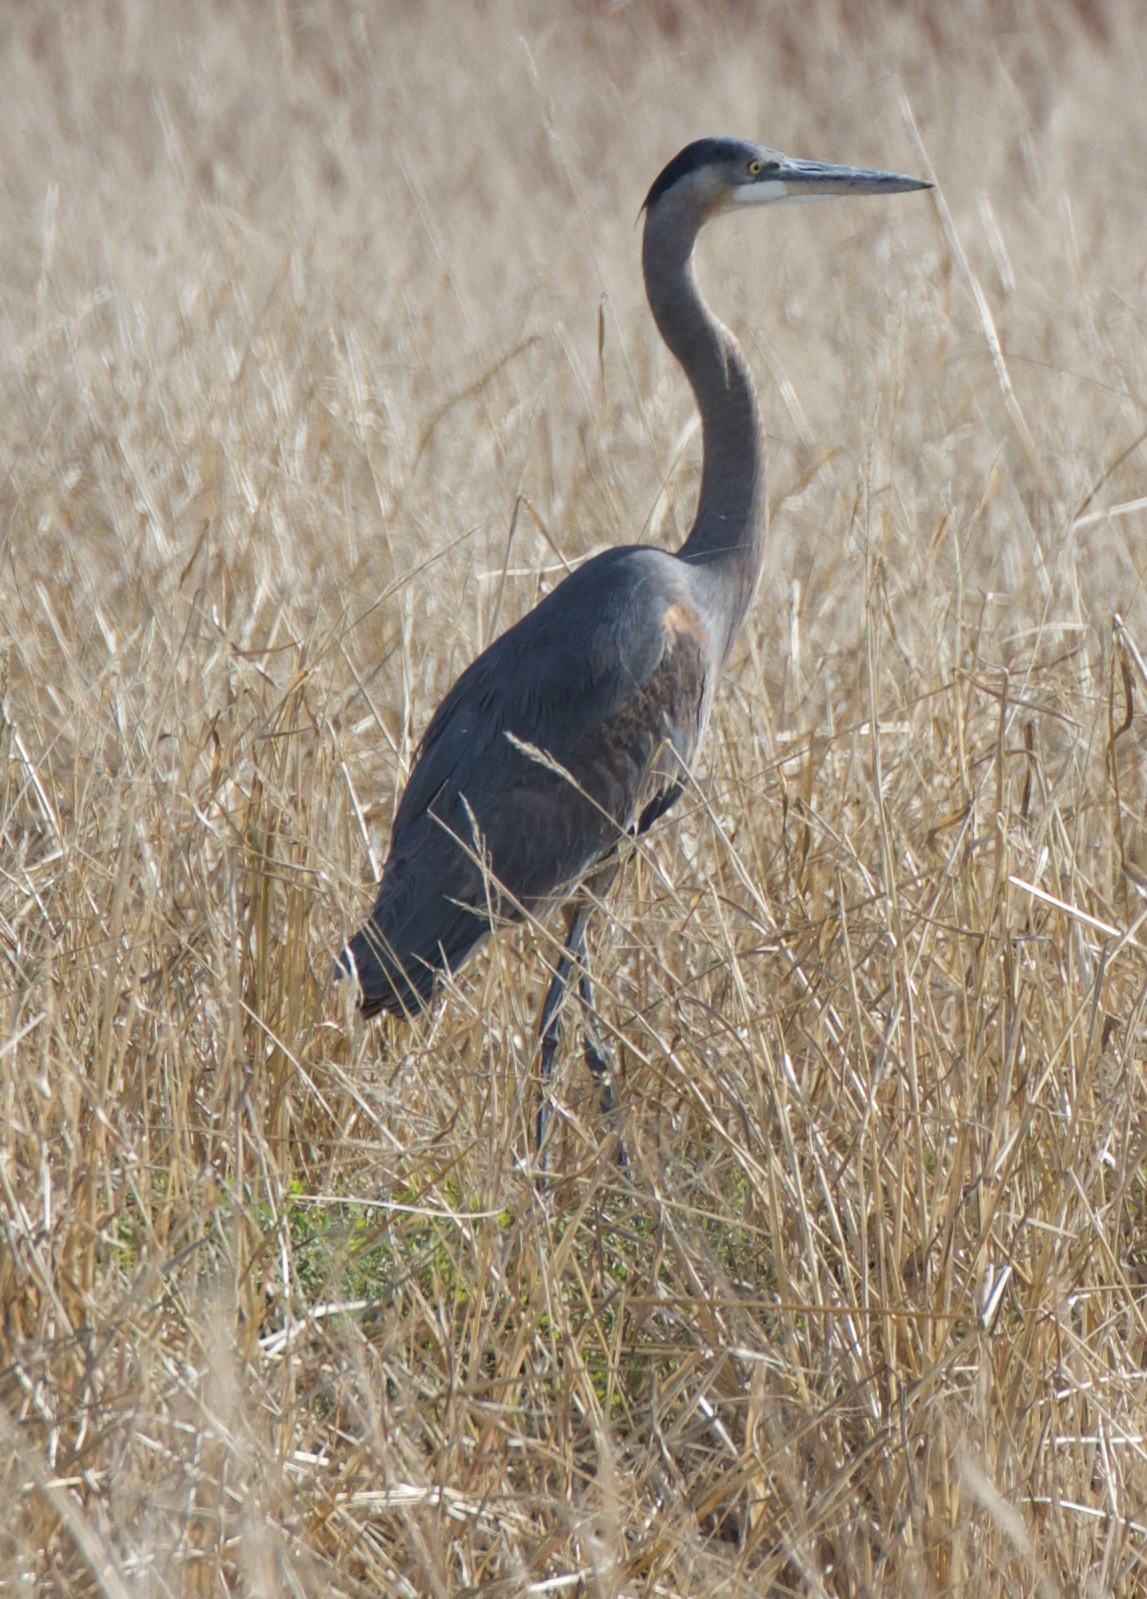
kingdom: Animalia
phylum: Chordata
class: Aves
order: Pelecaniformes
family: Ardeidae
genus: Ardea
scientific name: Ardea herodias
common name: Great blue heron
